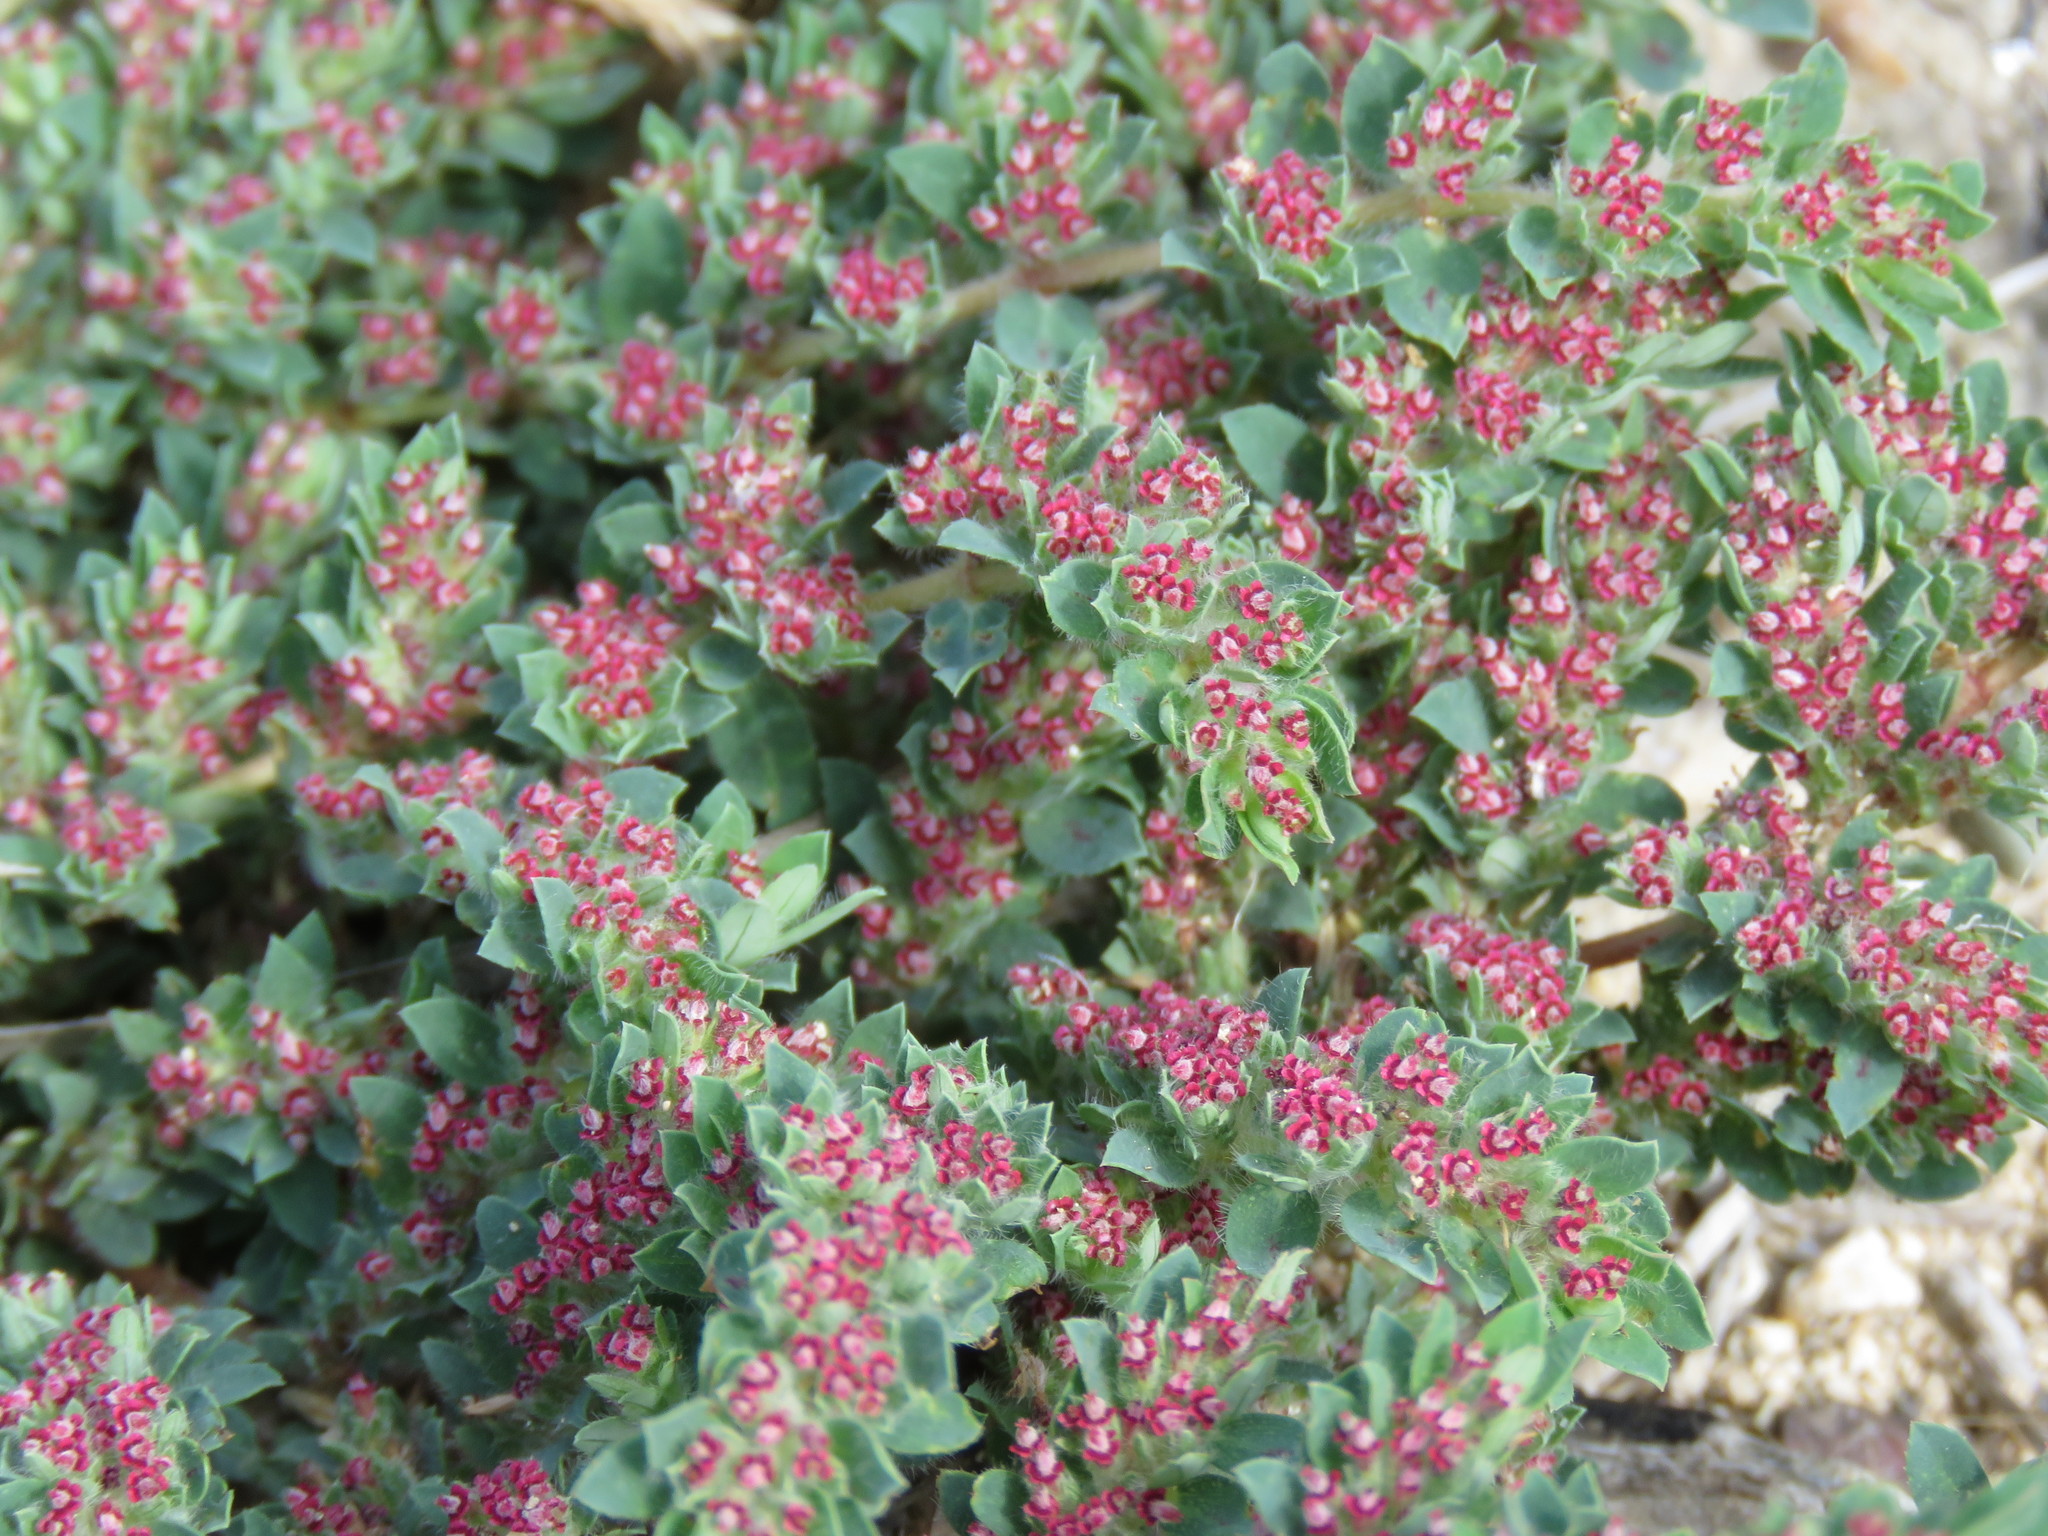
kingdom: Plantae
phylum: Tracheophyta
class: Magnoliopsida
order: Malpighiales
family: Euphorbiaceae
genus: Euphorbia
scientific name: Euphorbia velleriflora
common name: Caliche sandmat
